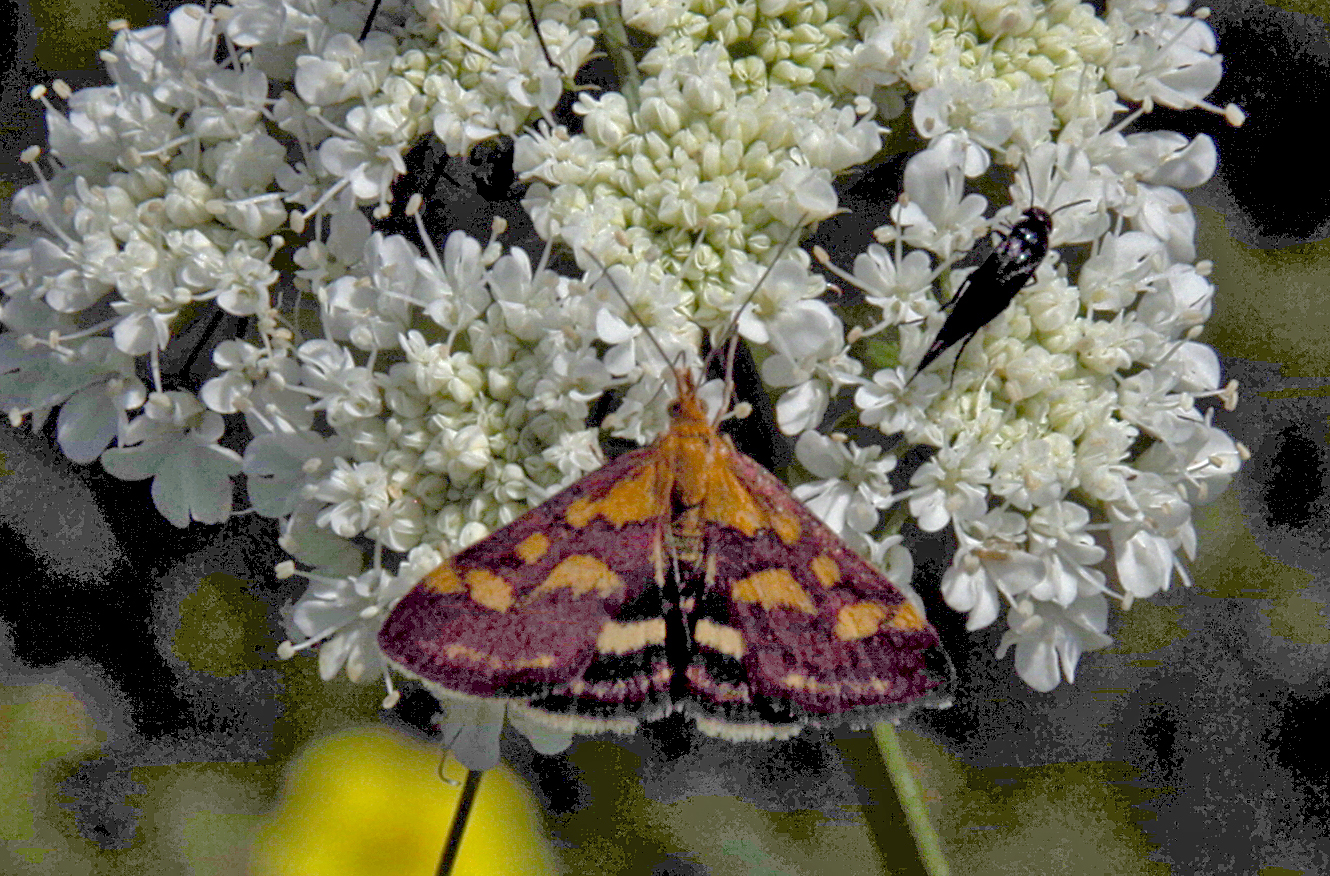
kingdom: Animalia
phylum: Arthropoda
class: Insecta
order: Lepidoptera
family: Crambidae
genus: Pyrausta
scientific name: Pyrausta purpuralis
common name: Common purple & gold
